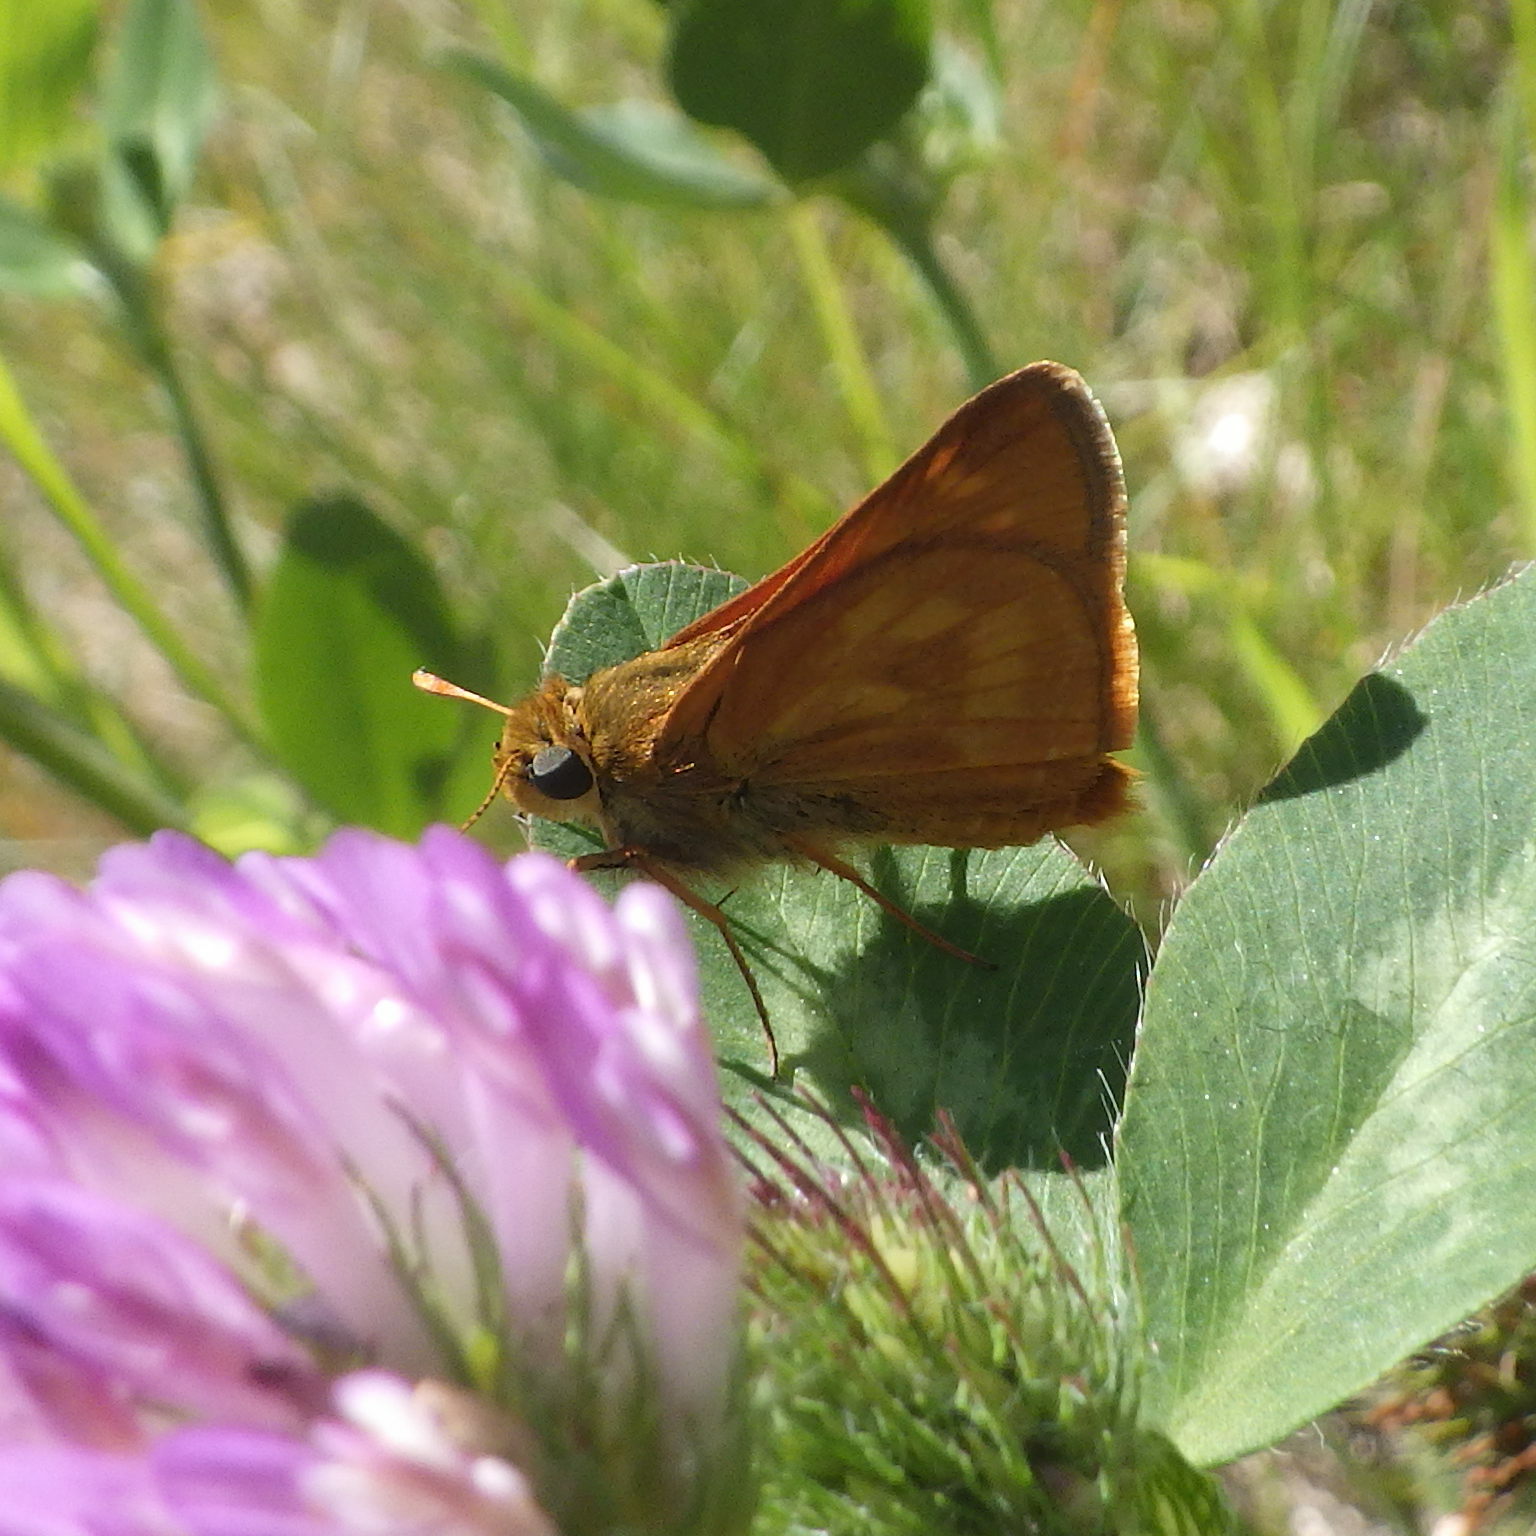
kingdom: Animalia
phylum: Arthropoda
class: Insecta
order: Lepidoptera
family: Hesperiidae
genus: Polites
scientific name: Polites mystic
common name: Long dash
